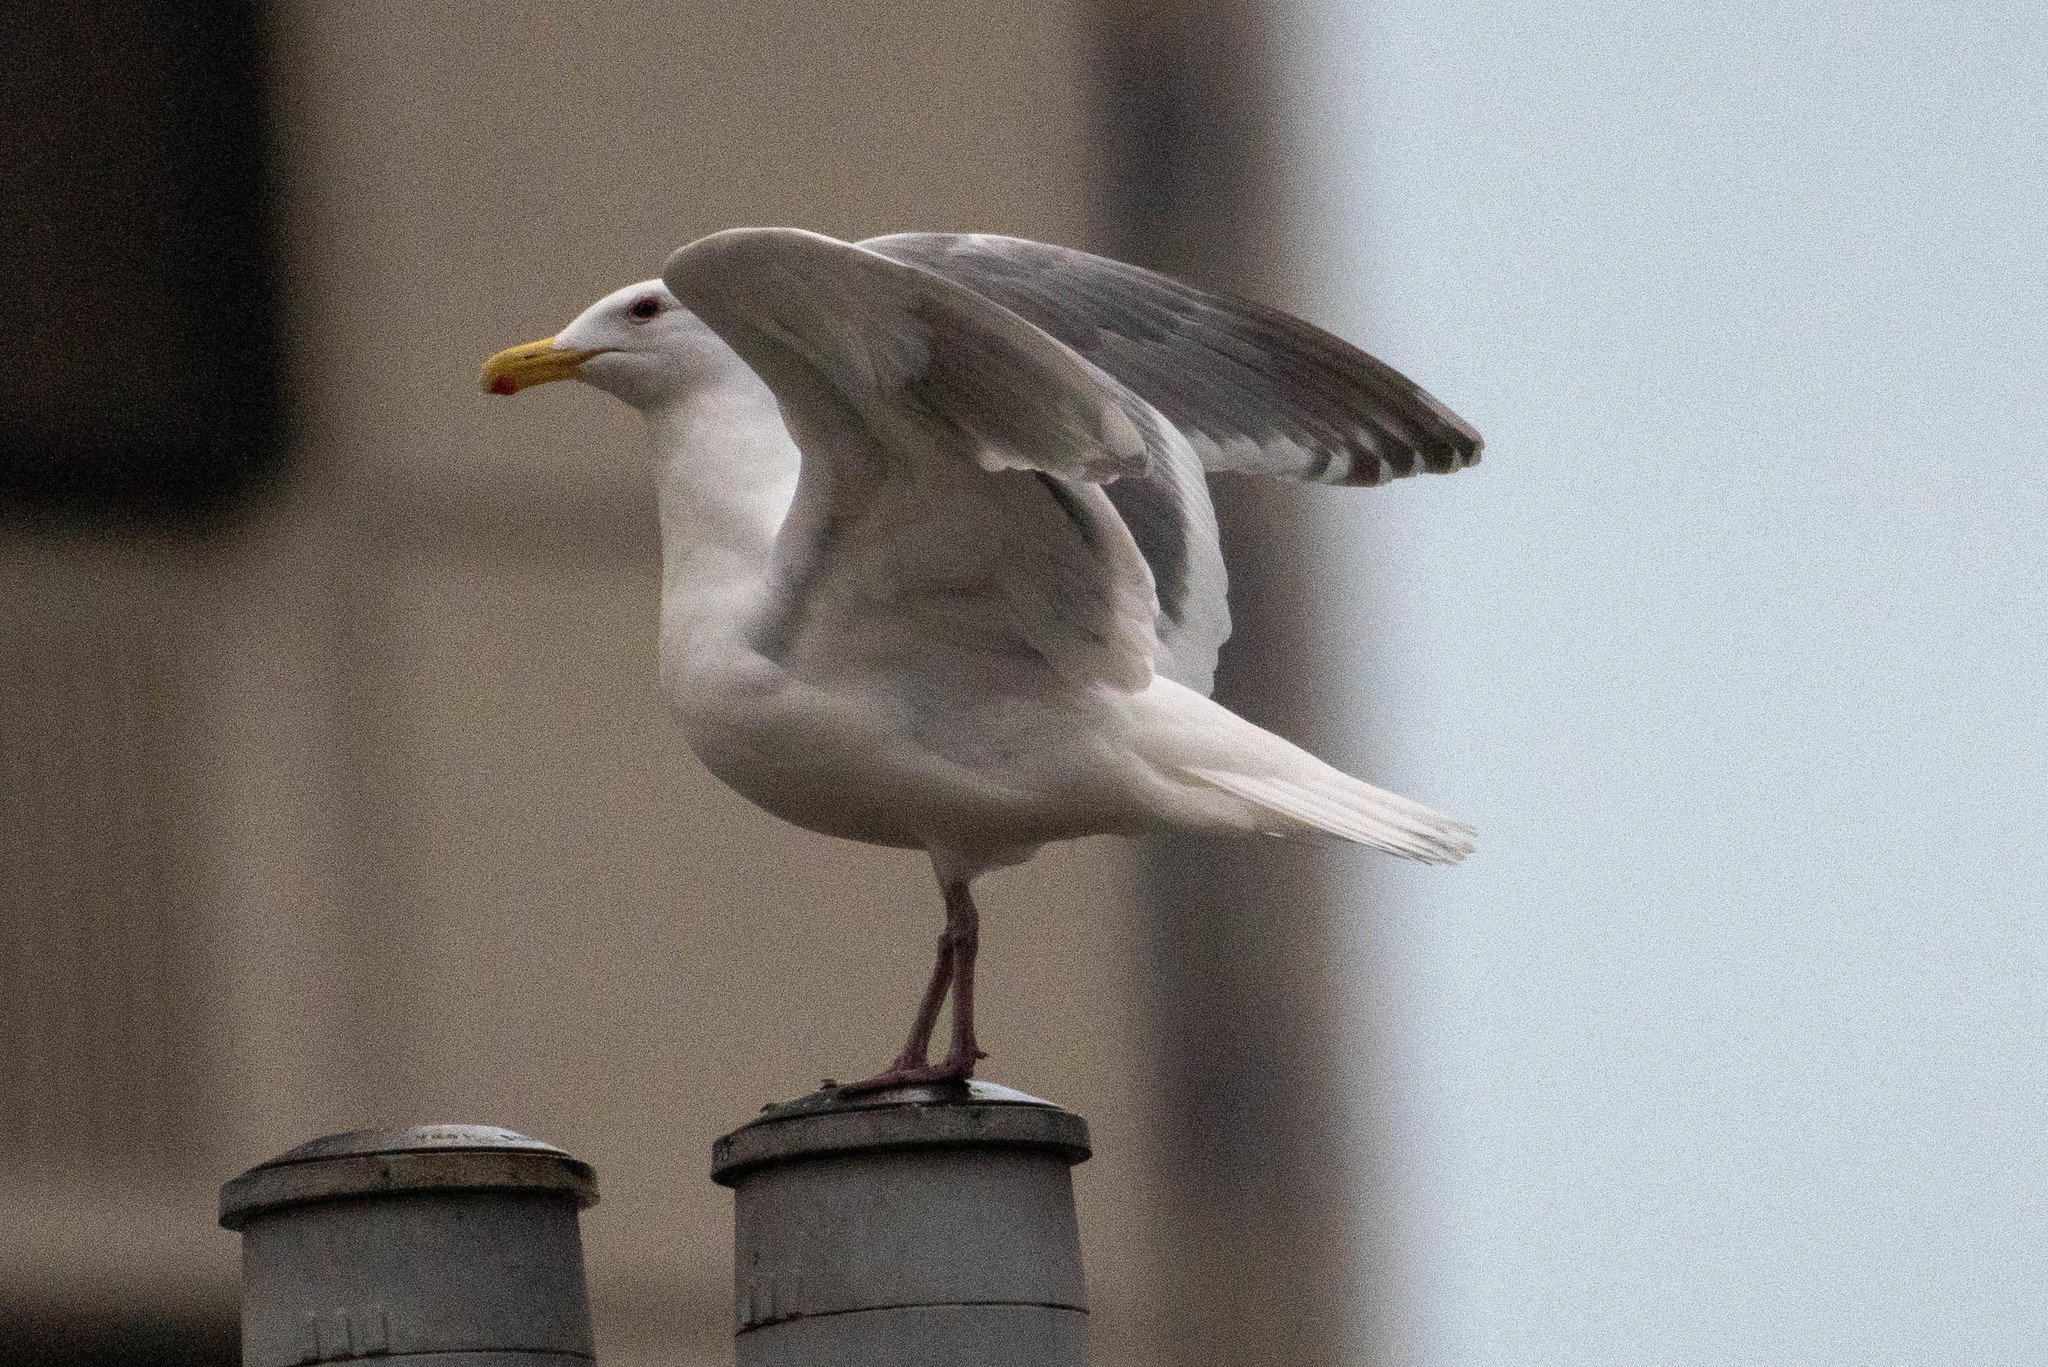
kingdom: Animalia
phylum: Chordata
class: Aves
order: Charadriiformes
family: Laridae
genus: Larus
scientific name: Larus
